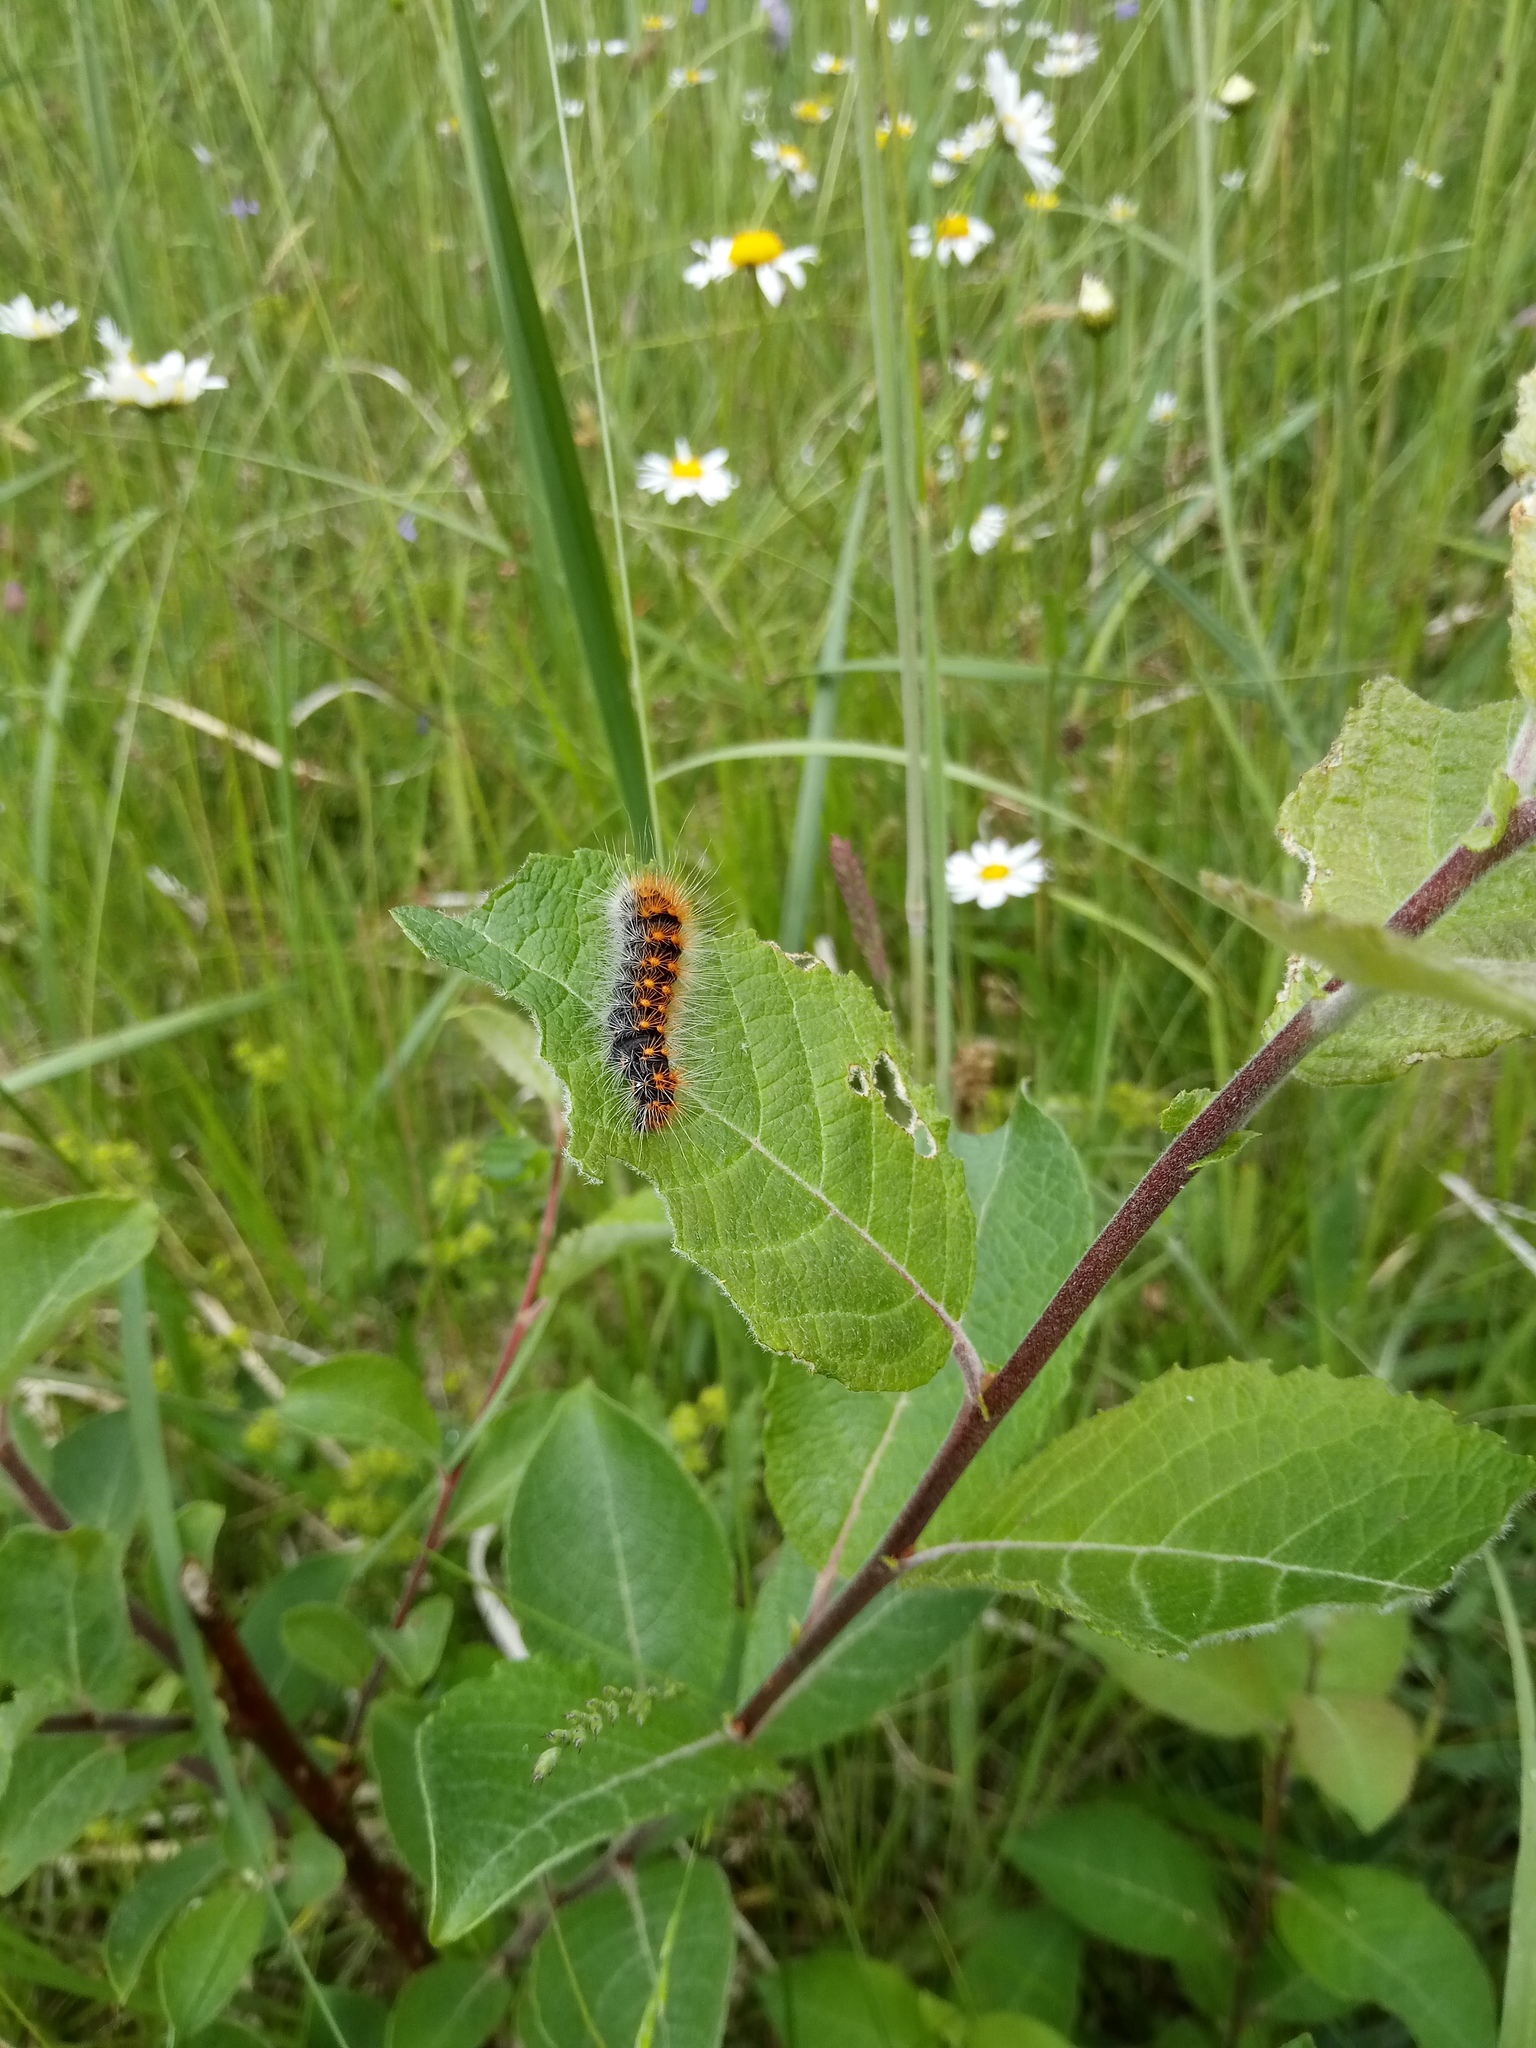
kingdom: Animalia
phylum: Arthropoda
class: Insecta
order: Lepidoptera
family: Noctuidae
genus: Acronicta
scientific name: Acronicta auricoma
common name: Scarce dagger
